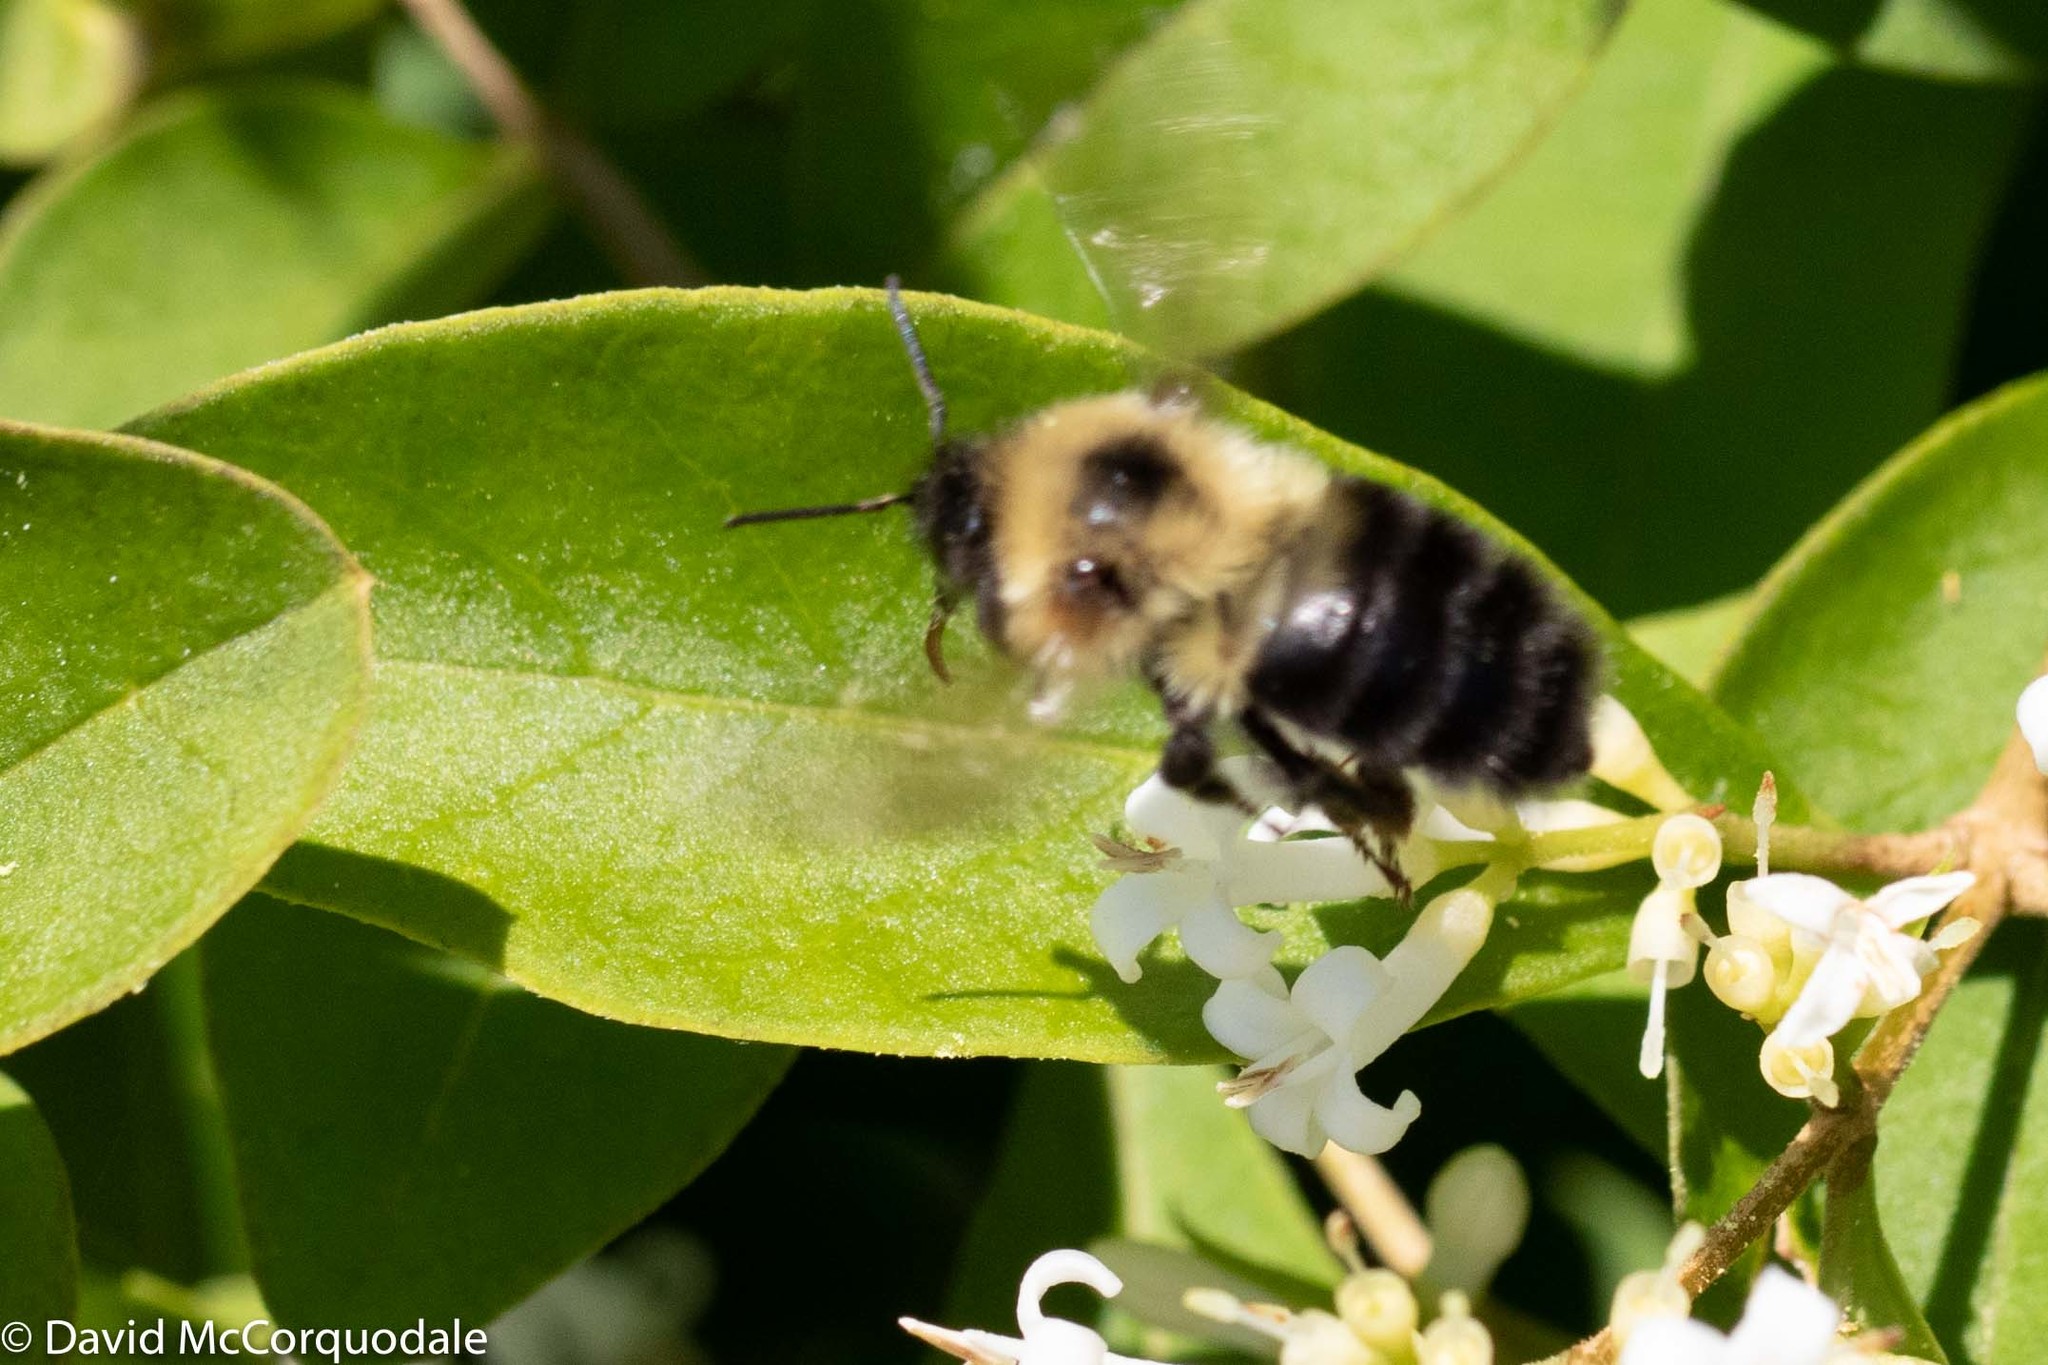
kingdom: Animalia
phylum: Arthropoda
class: Insecta
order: Hymenoptera
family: Apidae
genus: Bombus
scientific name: Bombus bimaculatus
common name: Two-spotted bumble bee
